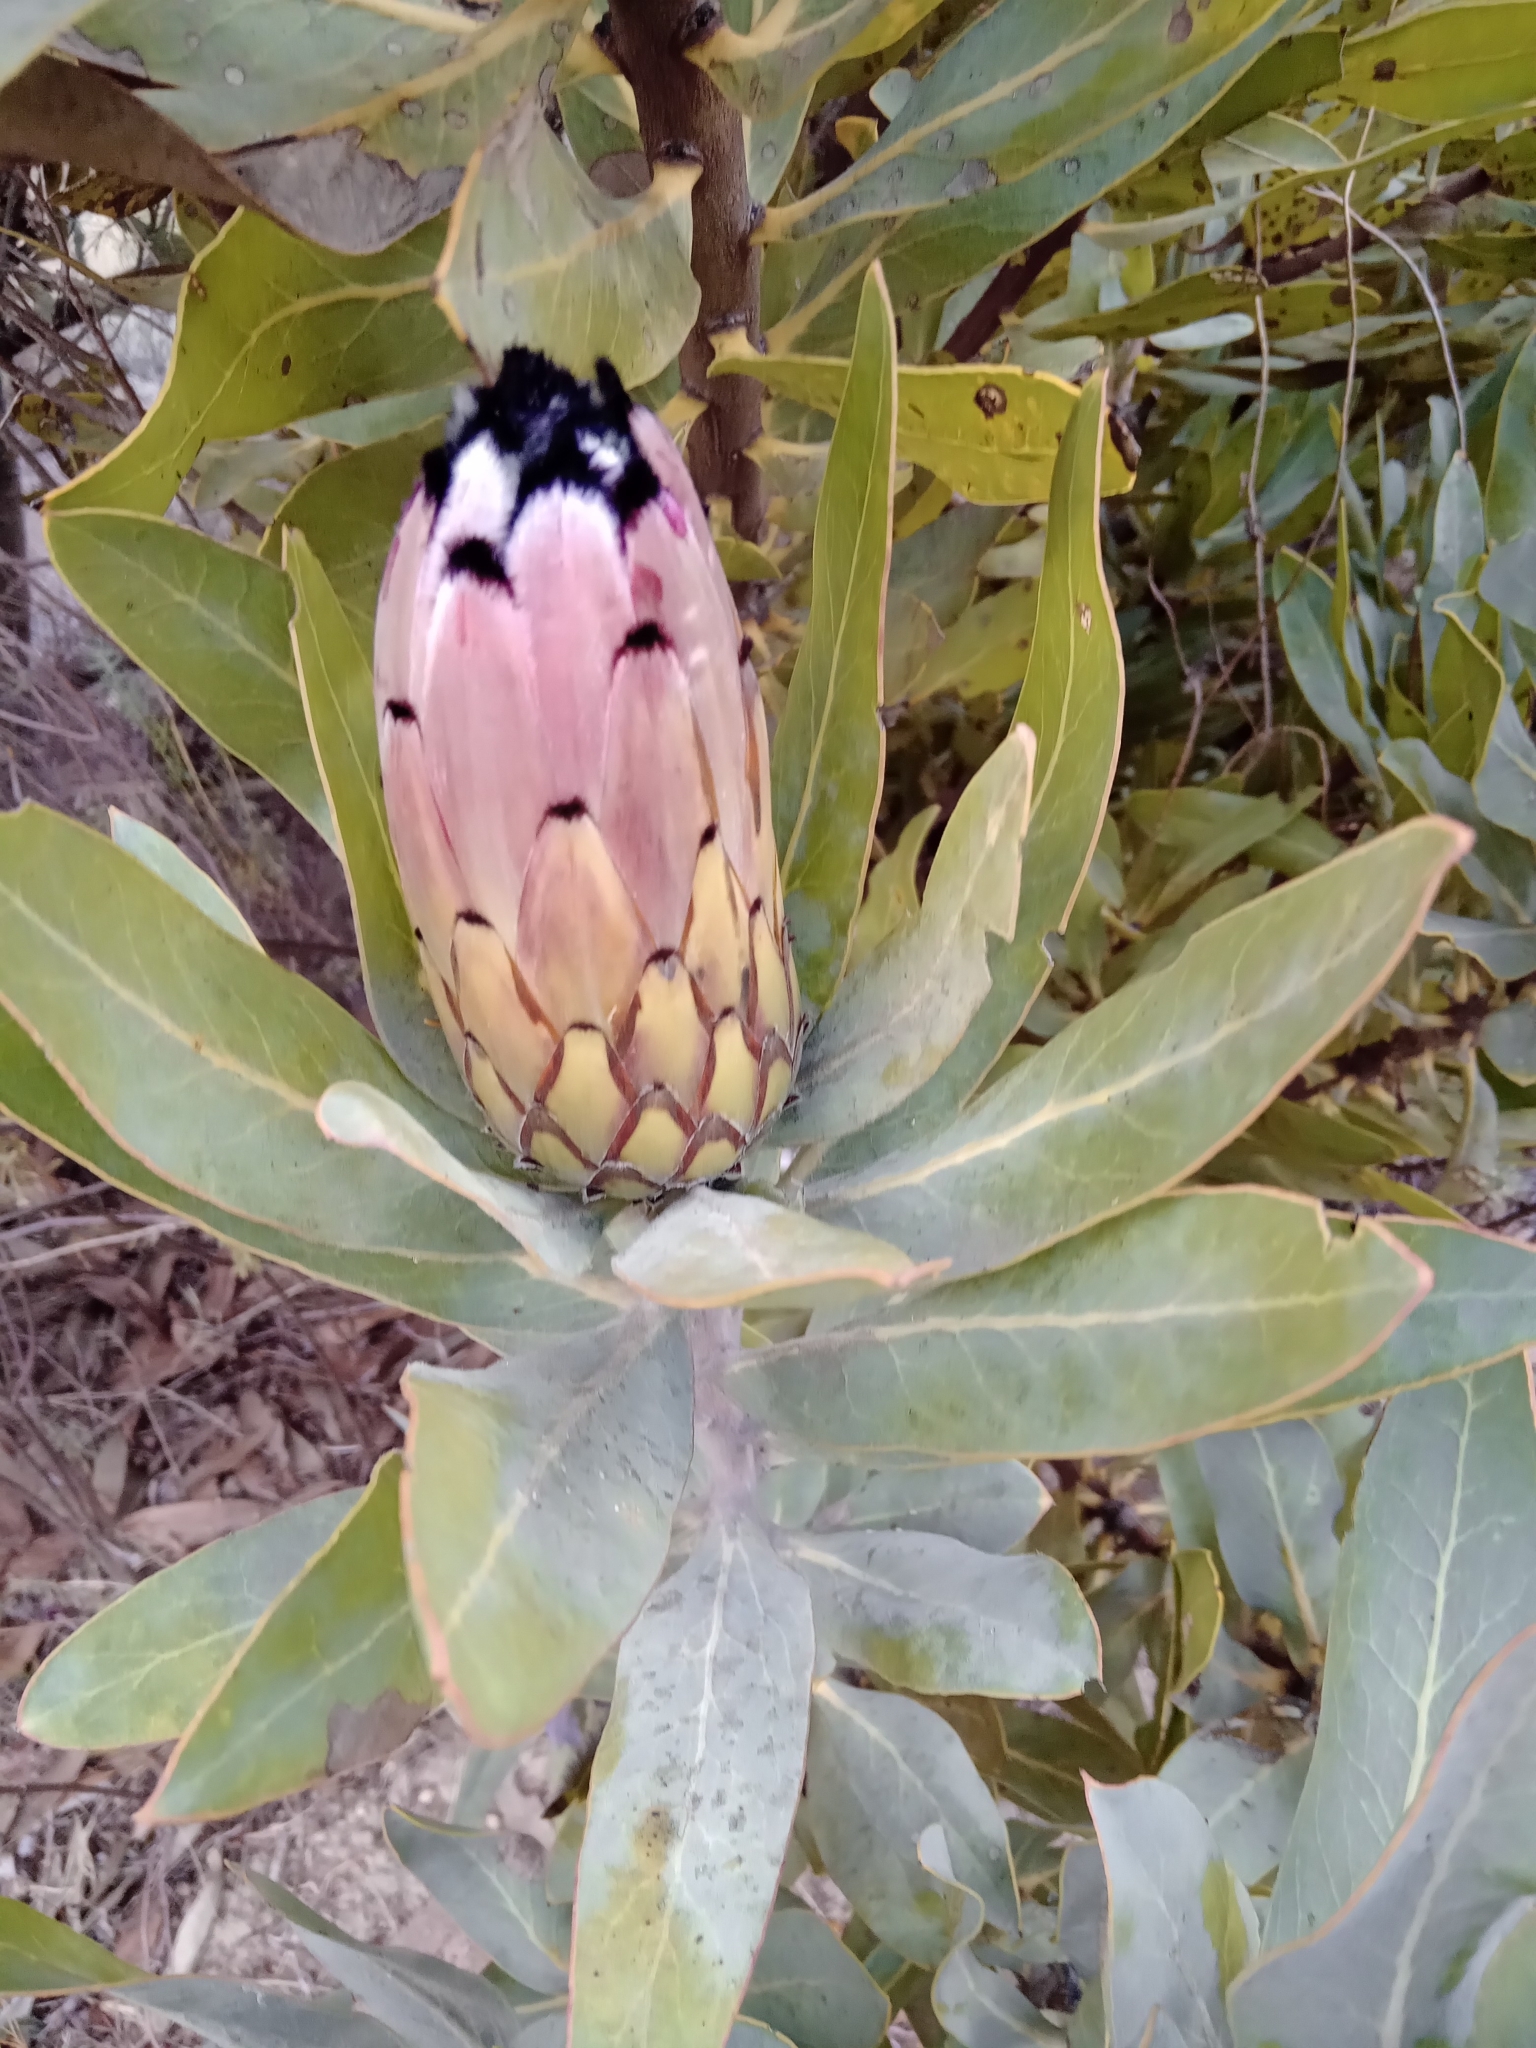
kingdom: Plantae
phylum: Tracheophyta
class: Magnoliopsida
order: Proteales
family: Proteaceae
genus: Protea
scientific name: Protea laurifolia
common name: Grey-leaf sugarbsh
